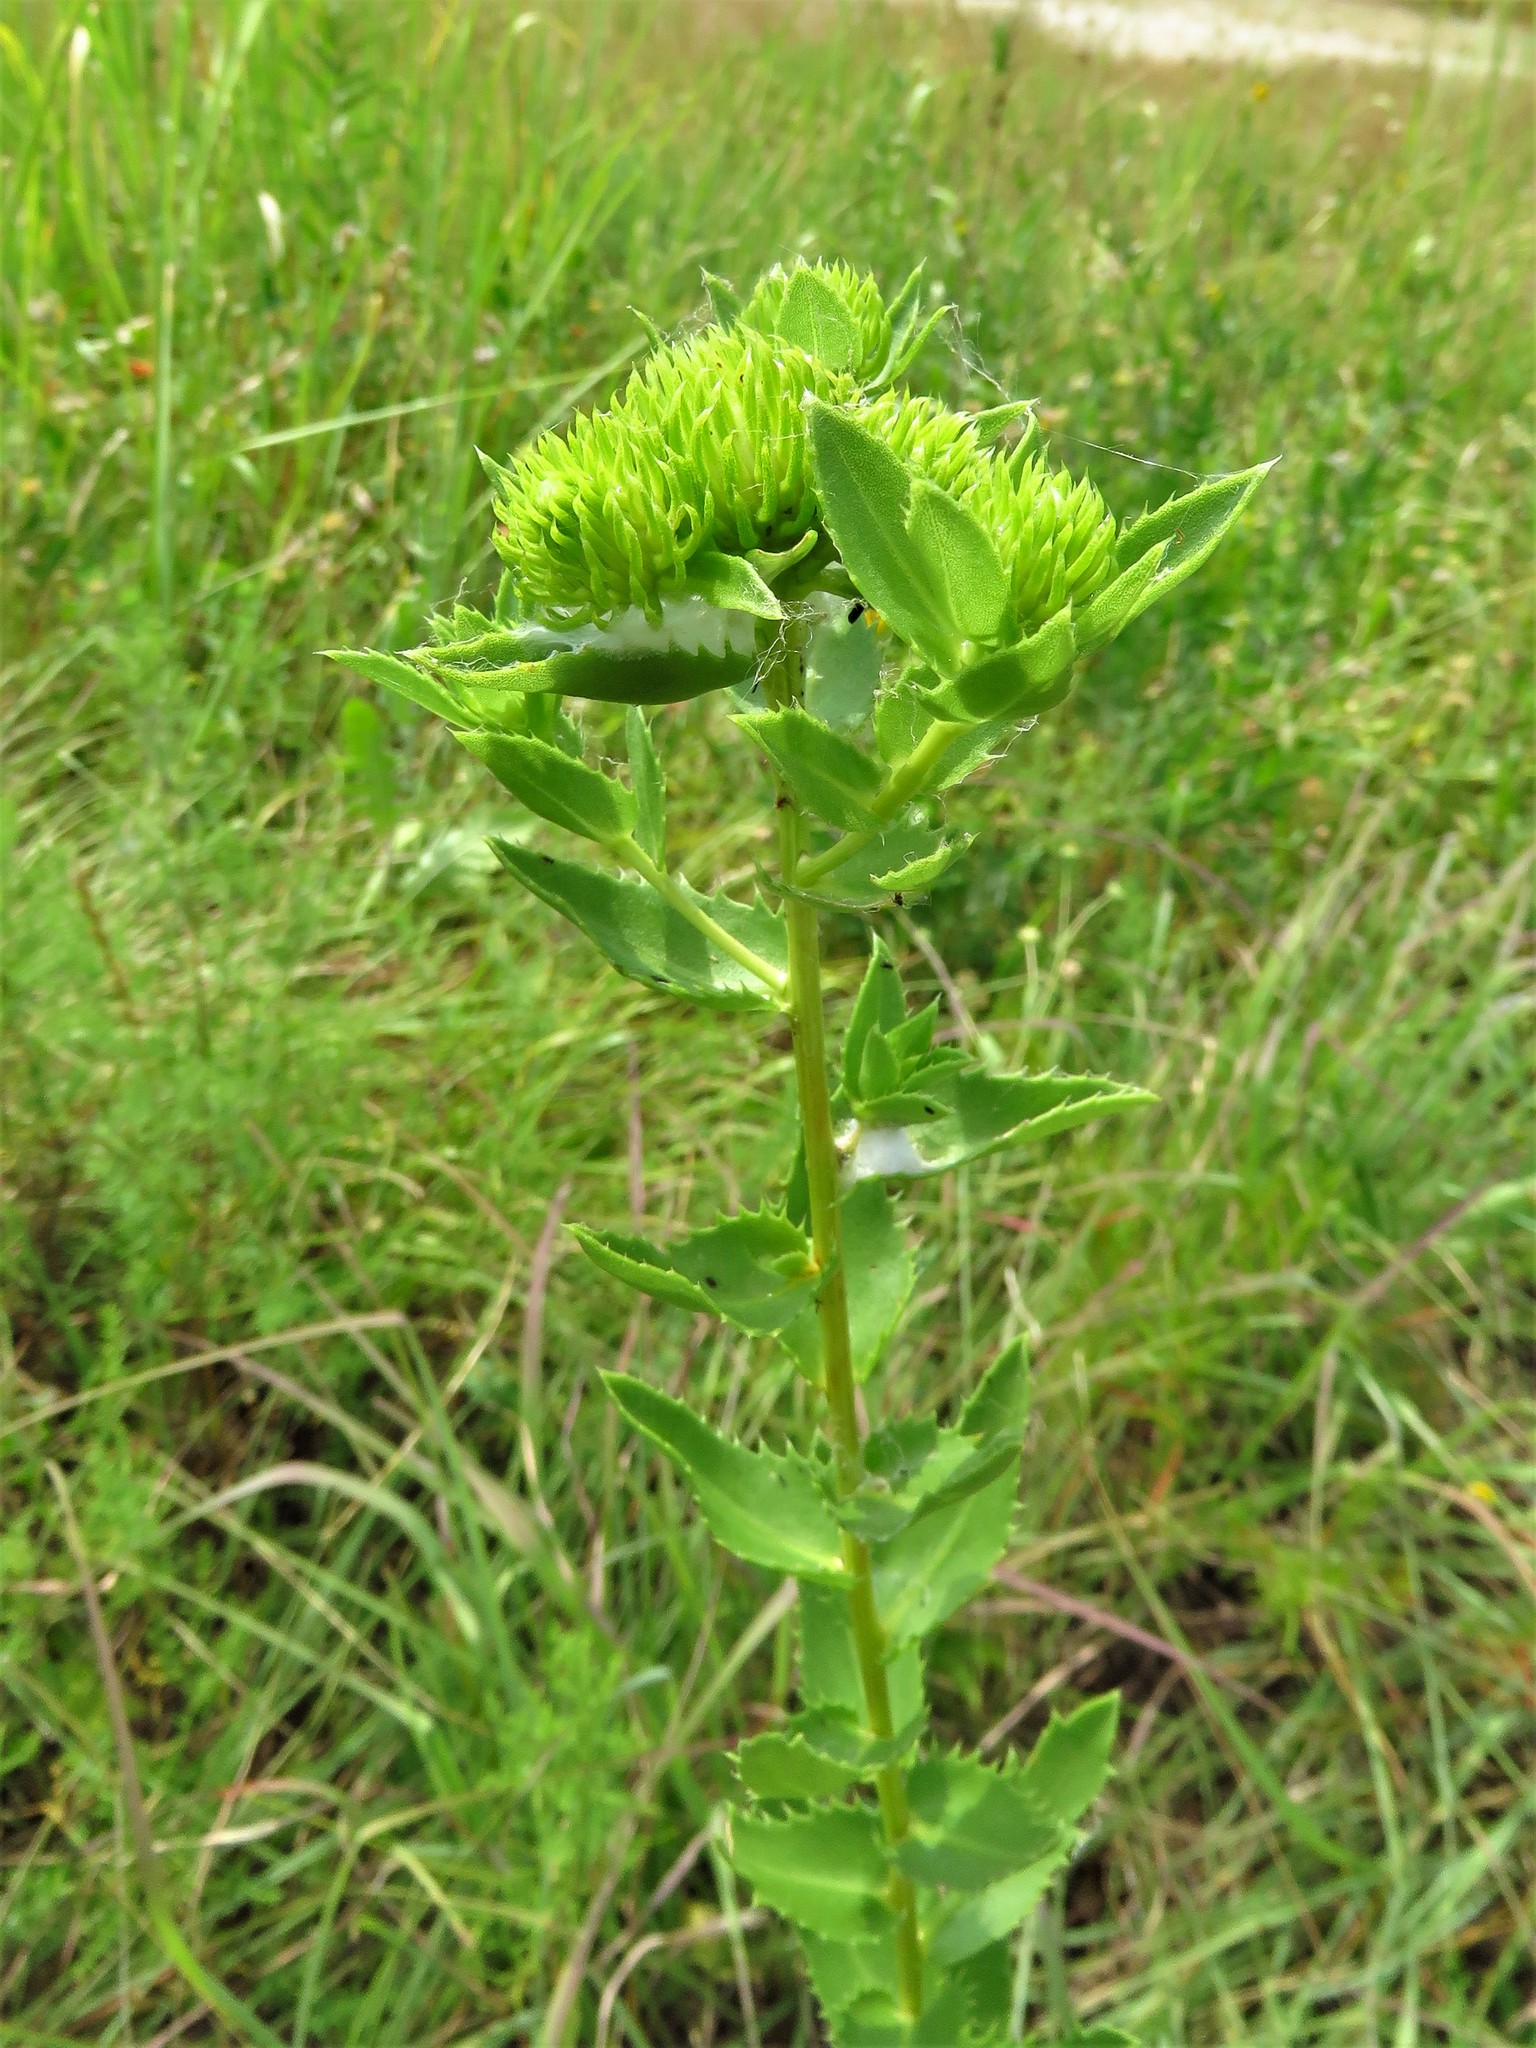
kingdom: Plantae
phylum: Tracheophyta
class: Magnoliopsida
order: Asterales
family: Asteraceae
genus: Grindelia
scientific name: Grindelia ciliata
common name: Goldenweed
